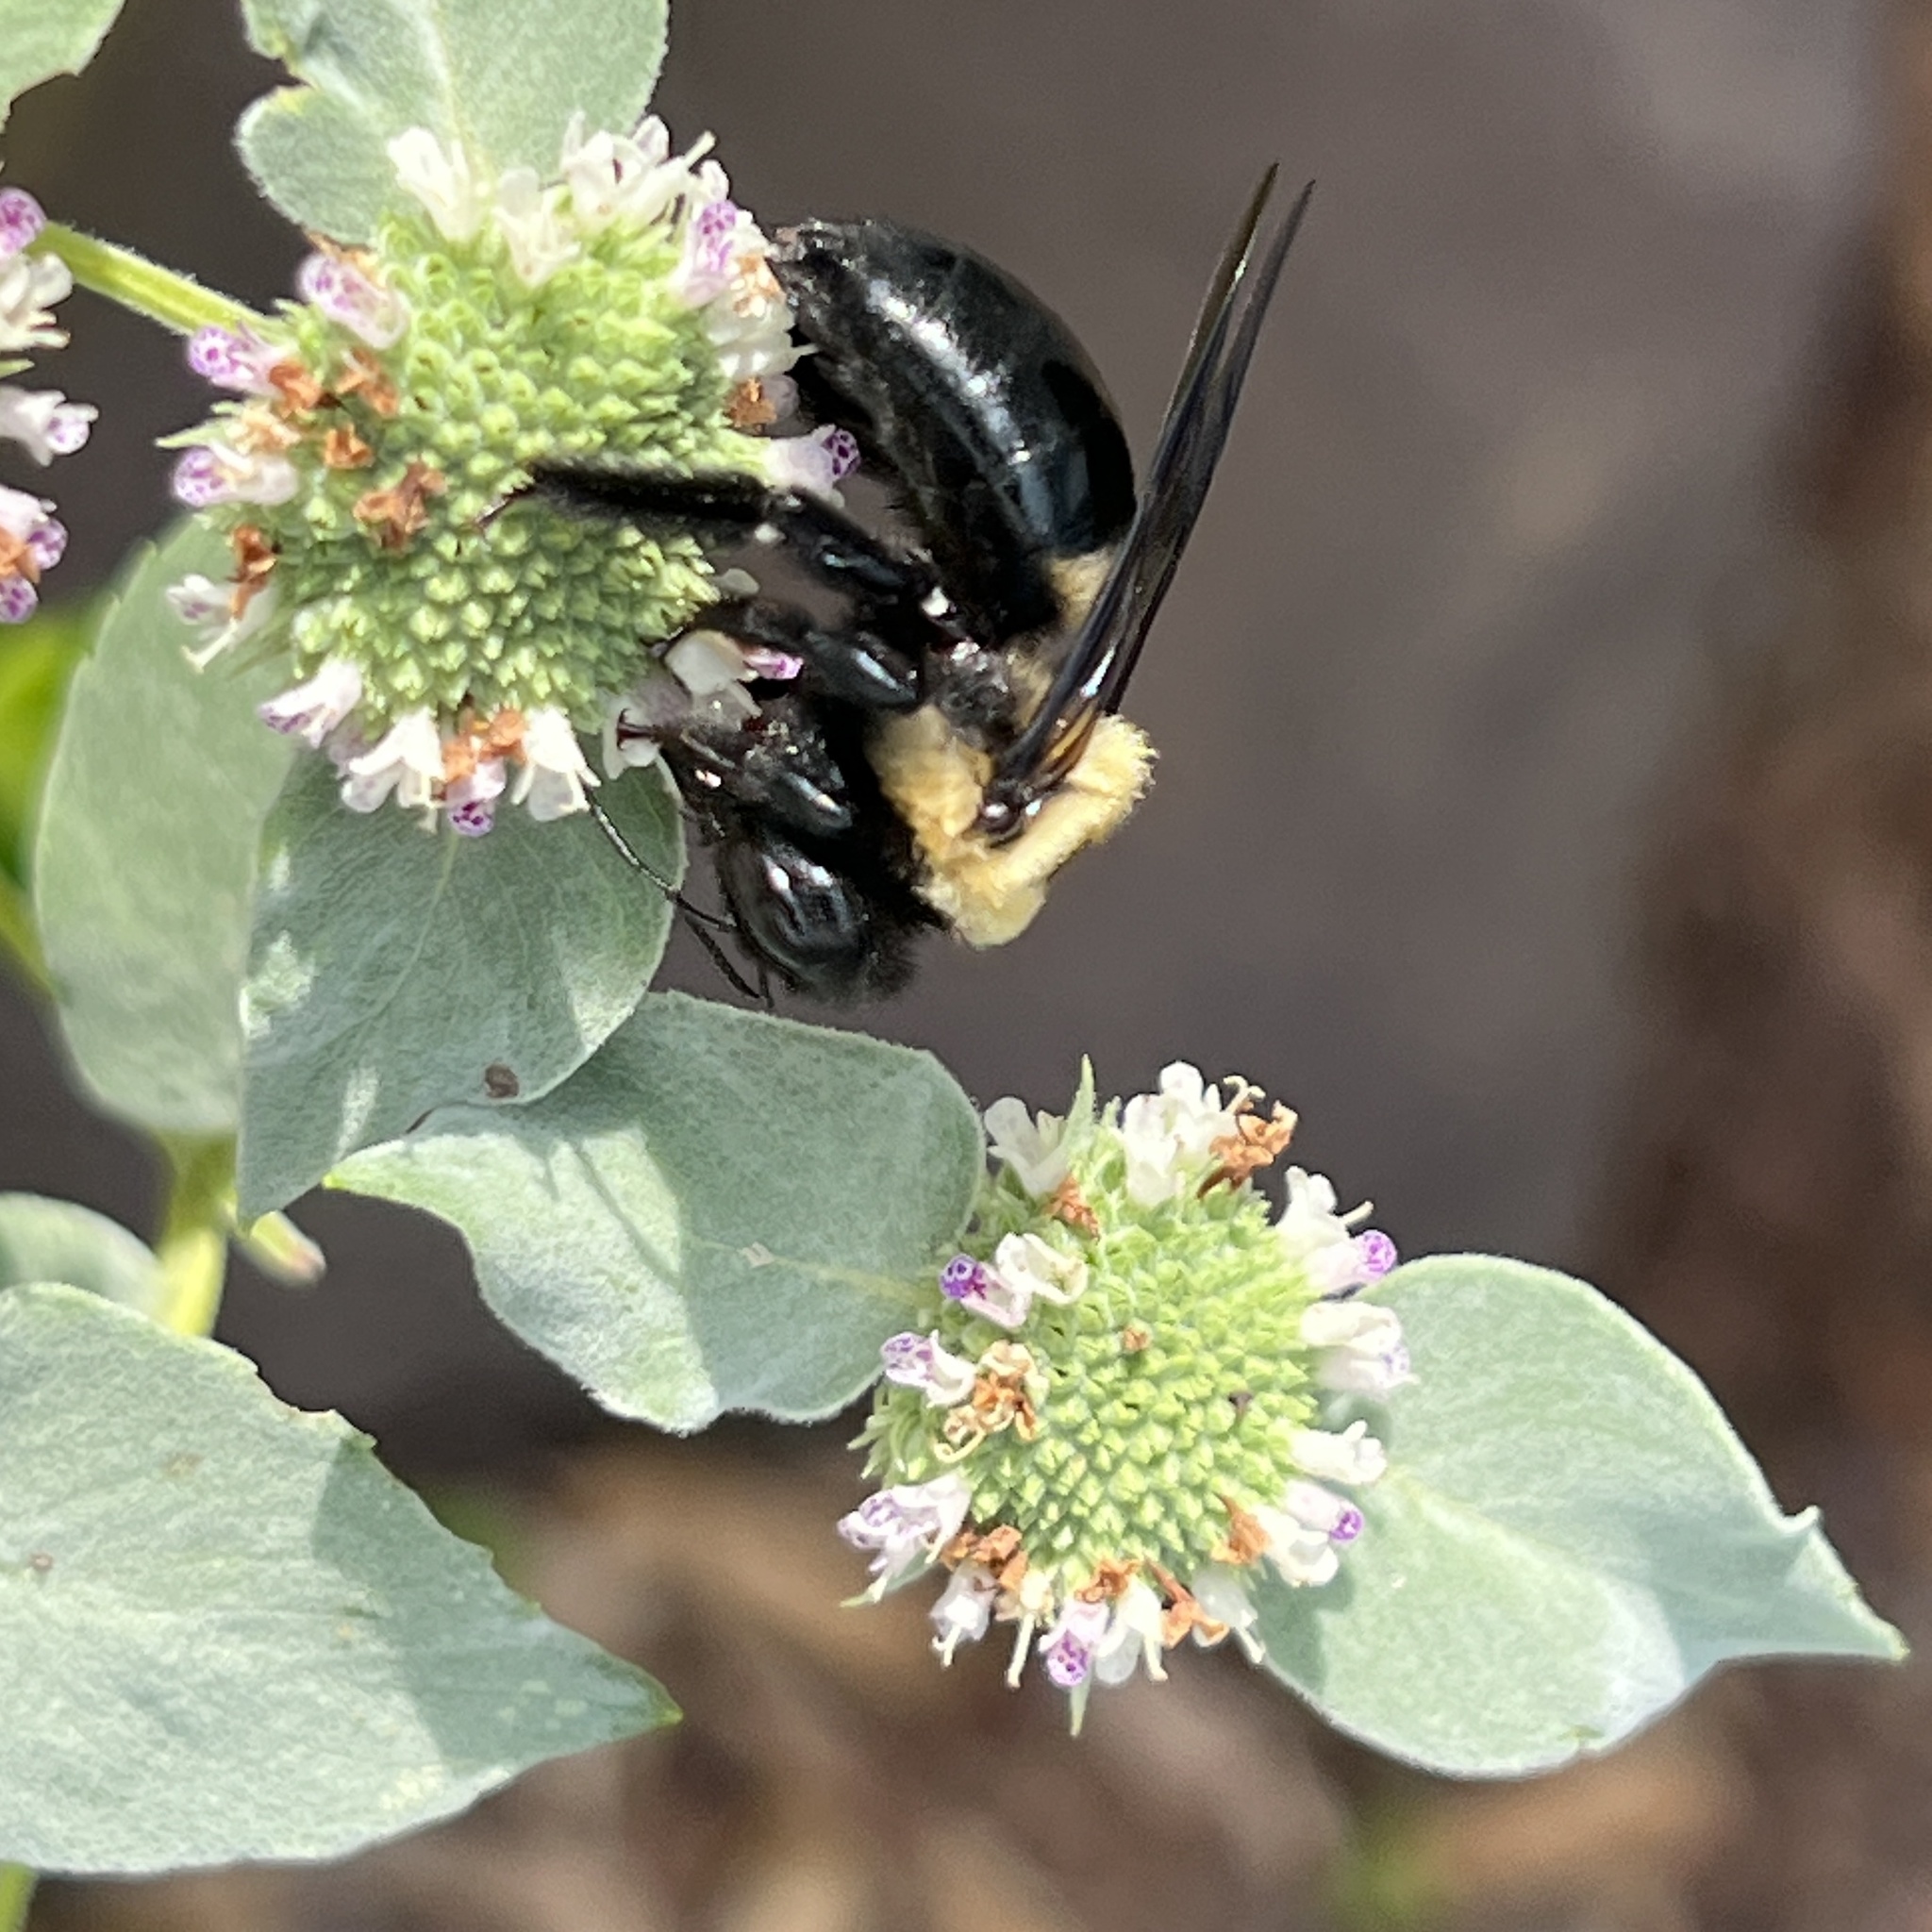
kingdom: Animalia
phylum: Arthropoda
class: Insecta
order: Hymenoptera
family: Apidae
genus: Xylocopa
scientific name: Xylocopa virginica
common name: Carpenter bee
